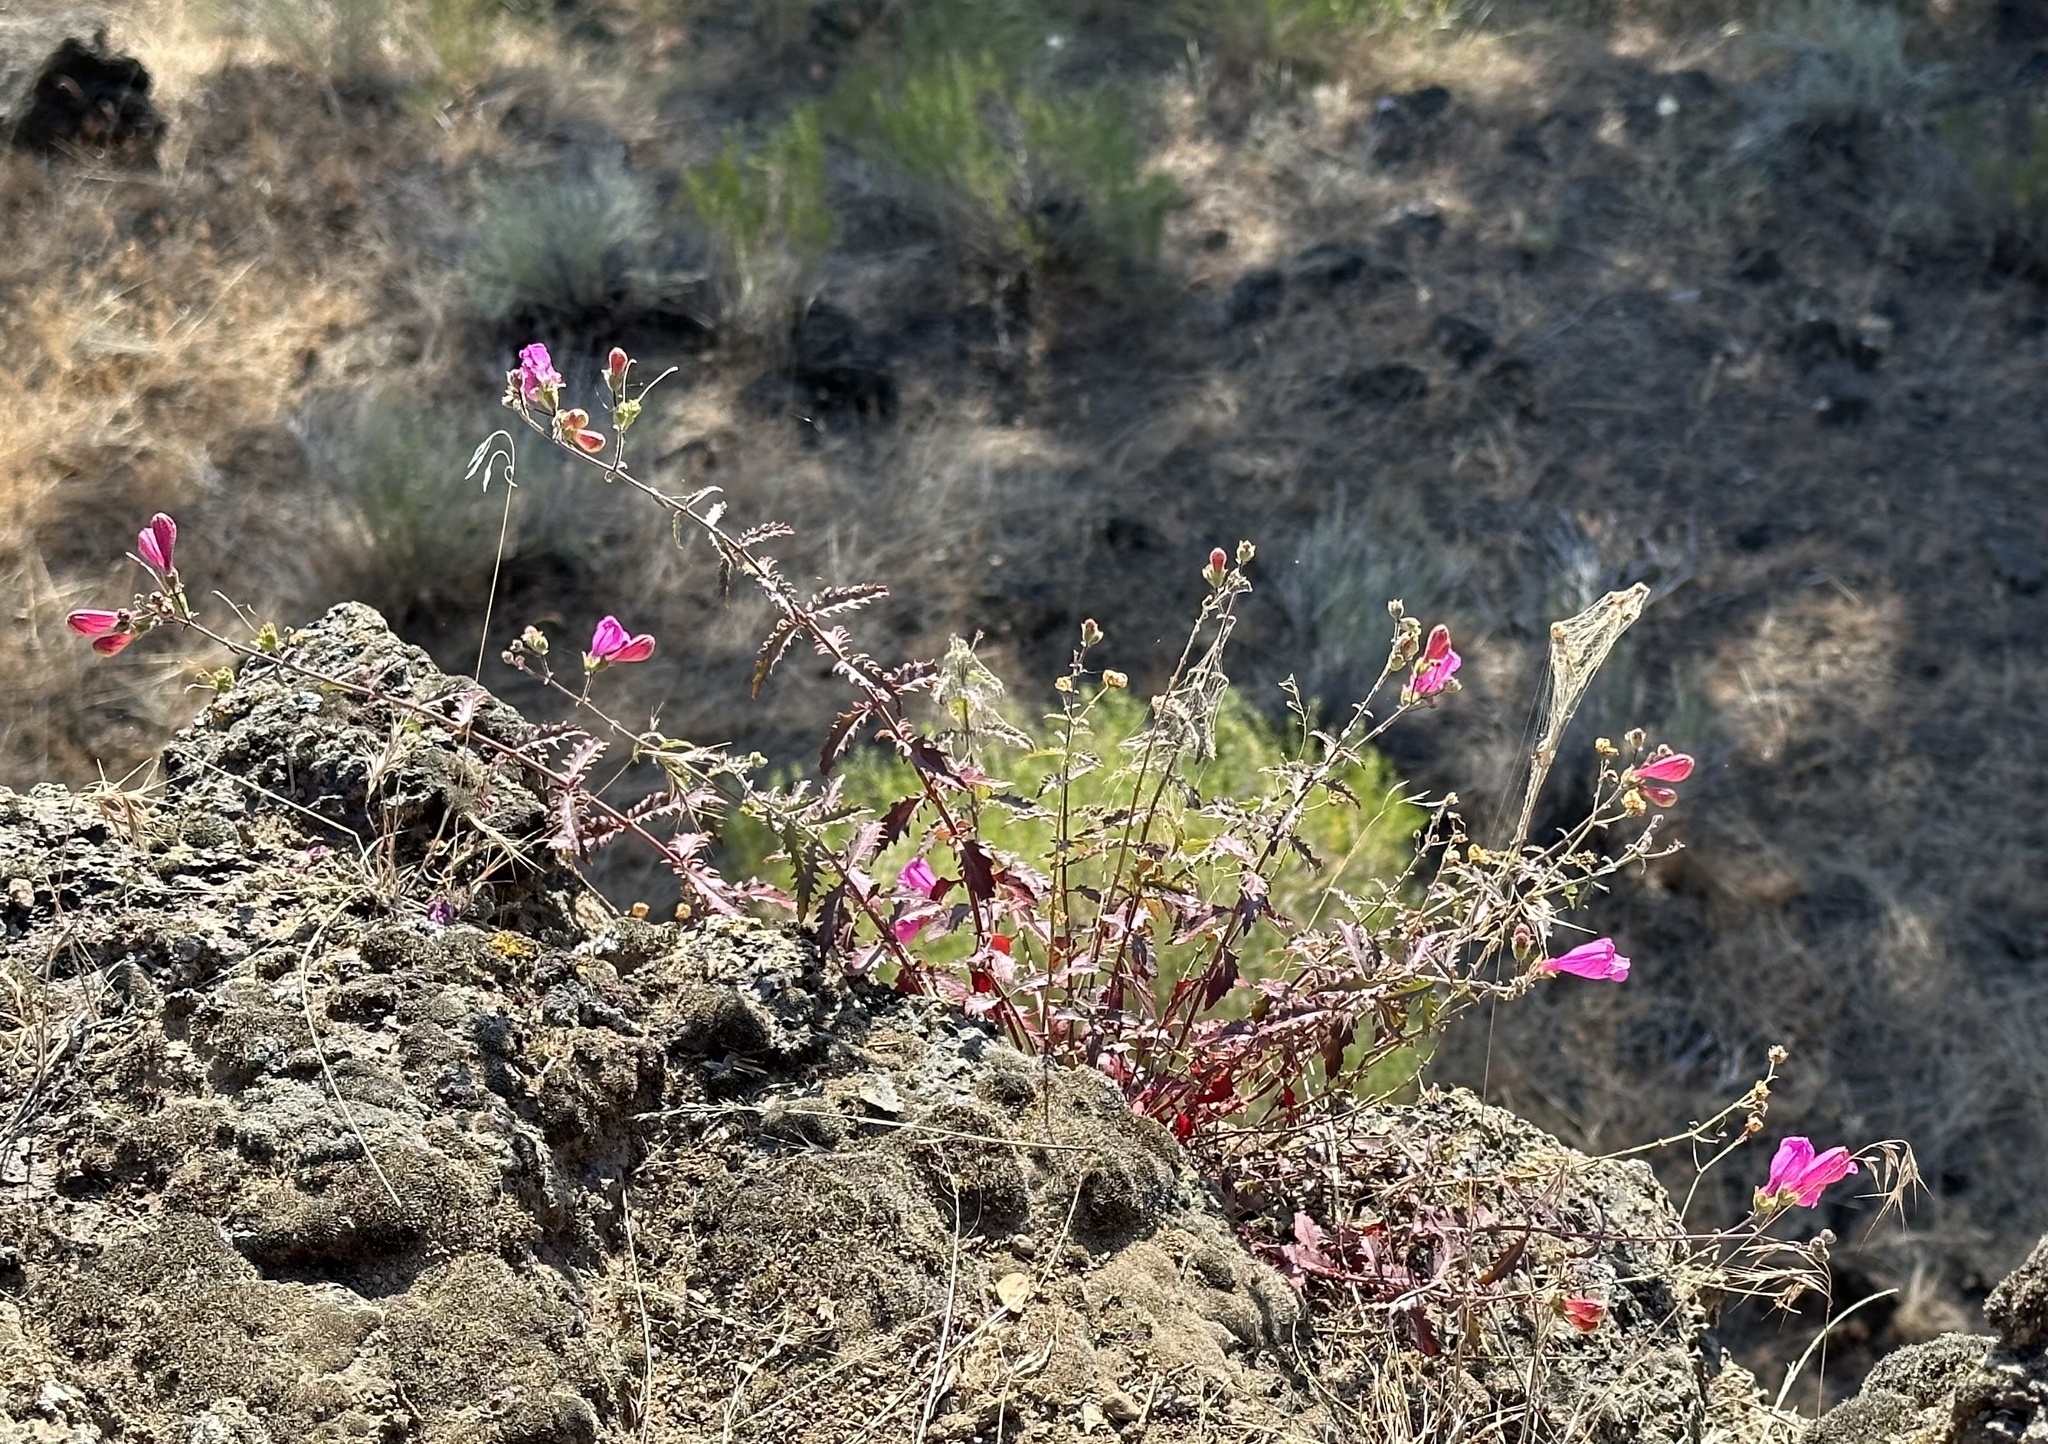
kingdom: Plantae
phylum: Tracheophyta
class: Magnoliopsida
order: Lamiales
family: Plantaginaceae
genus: Penstemon
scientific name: Penstemon richardsonii
